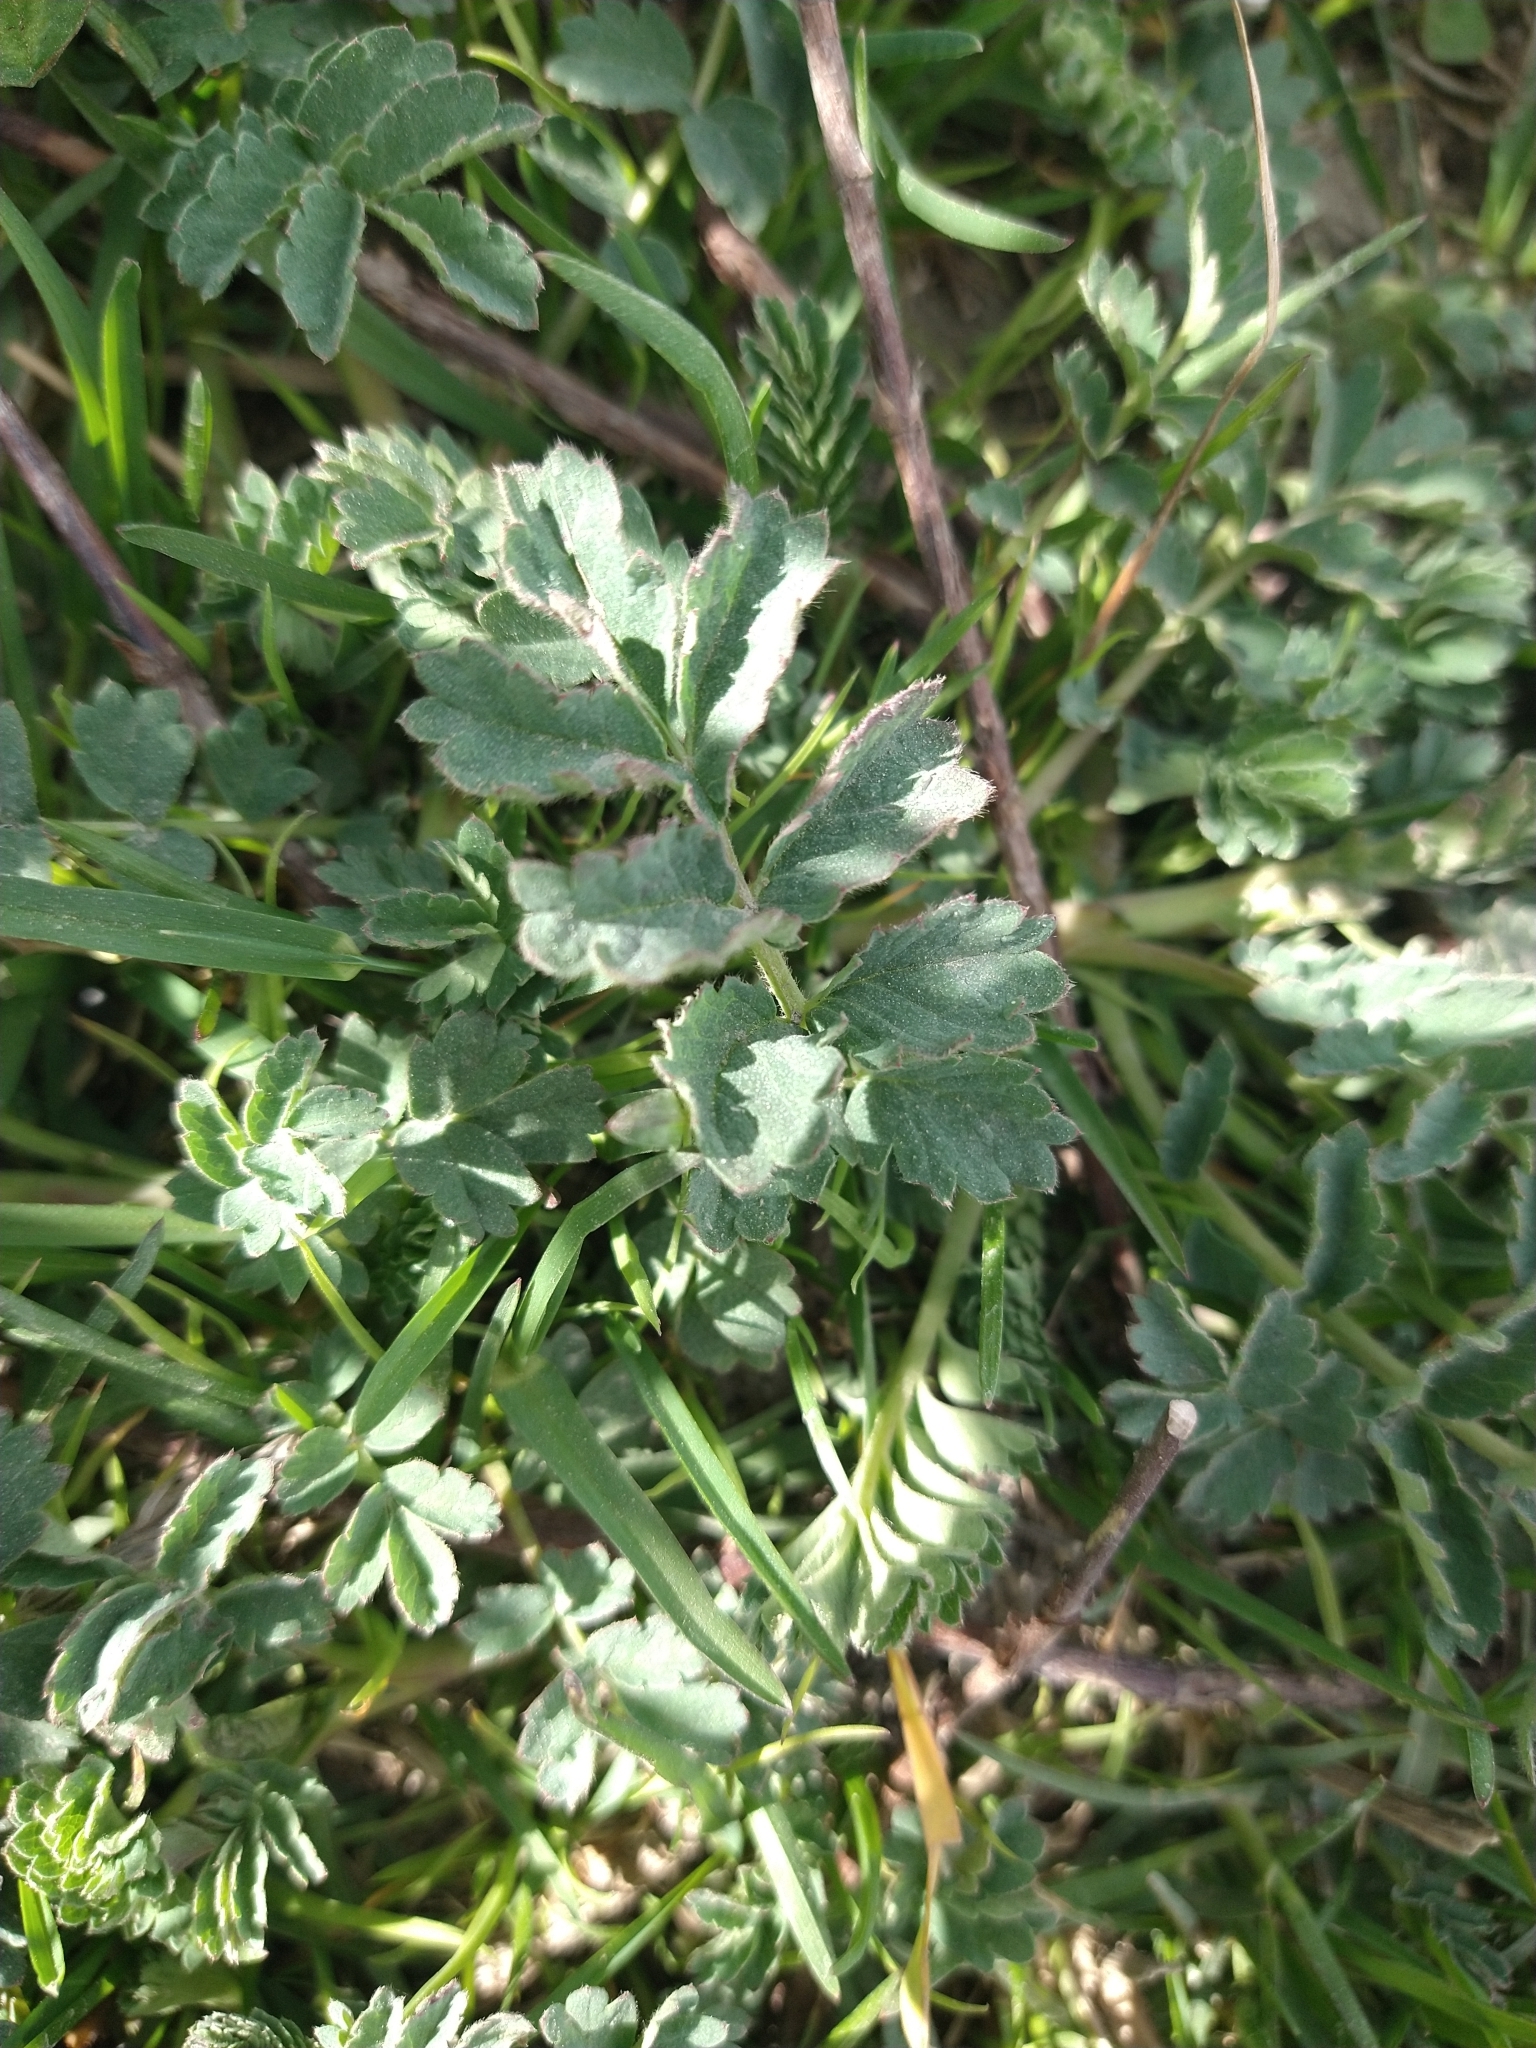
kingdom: Plantae
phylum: Tracheophyta
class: Magnoliopsida
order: Rosales
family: Rosaceae
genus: Acaena
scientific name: Acaena magellanica
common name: New zealand burr
